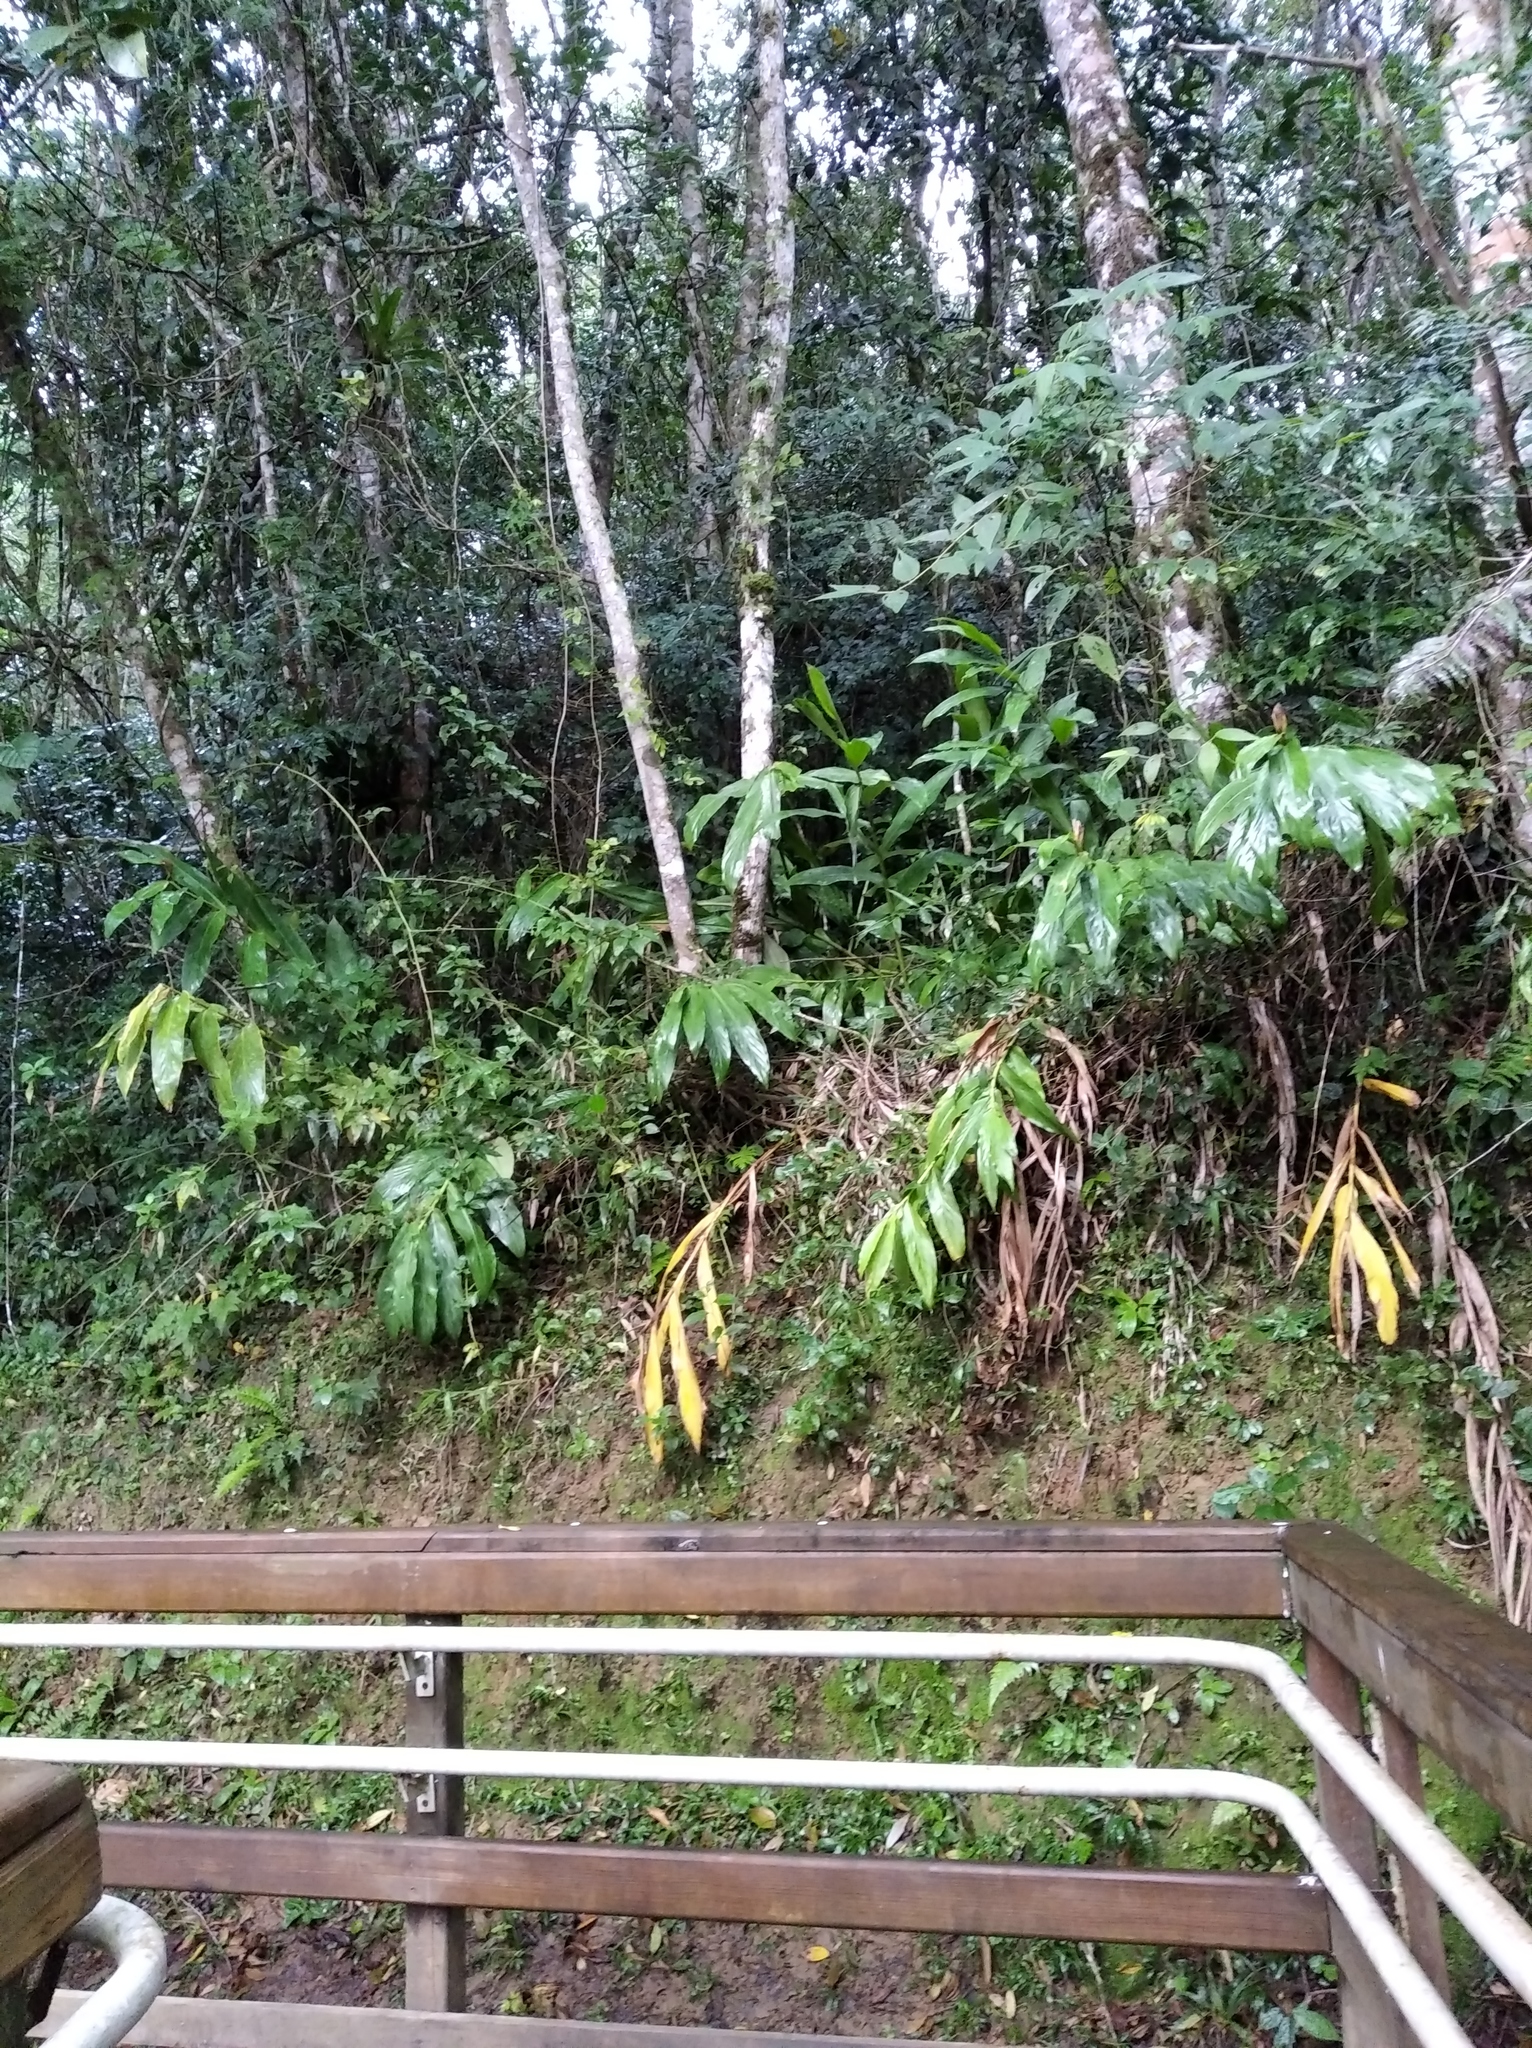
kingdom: Plantae
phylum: Tracheophyta
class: Liliopsida
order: Zingiberales
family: Zingiberaceae
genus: Hedychium
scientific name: Hedychium coronarium
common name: White garland-lily
